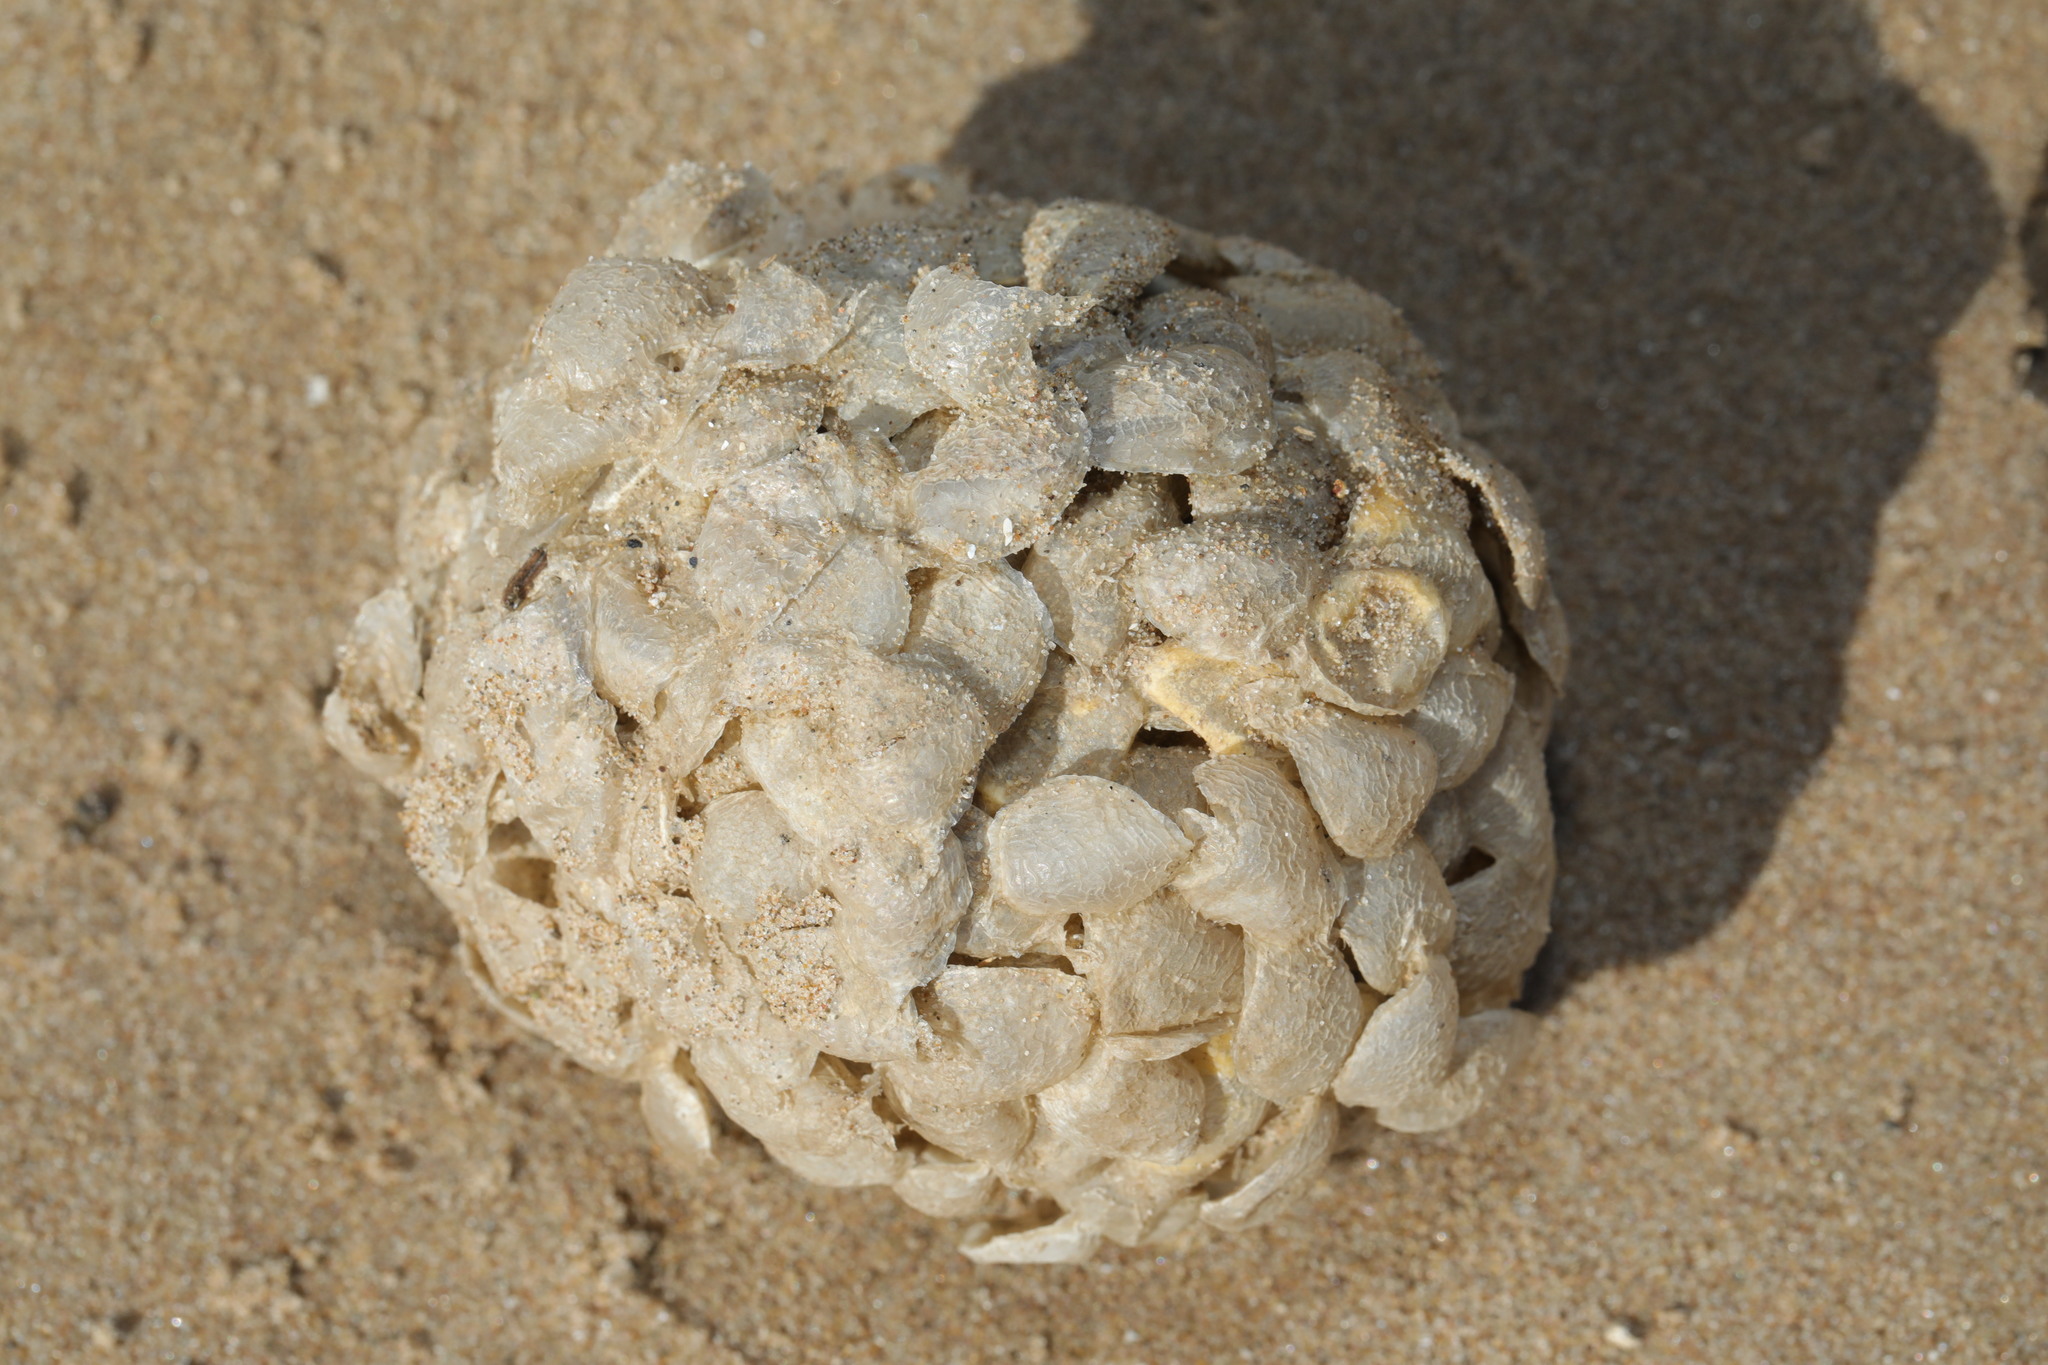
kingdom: Animalia
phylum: Mollusca
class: Gastropoda
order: Neogastropoda
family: Buccinidae
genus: Buccinum
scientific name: Buccinum undatum
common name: Common whelk
